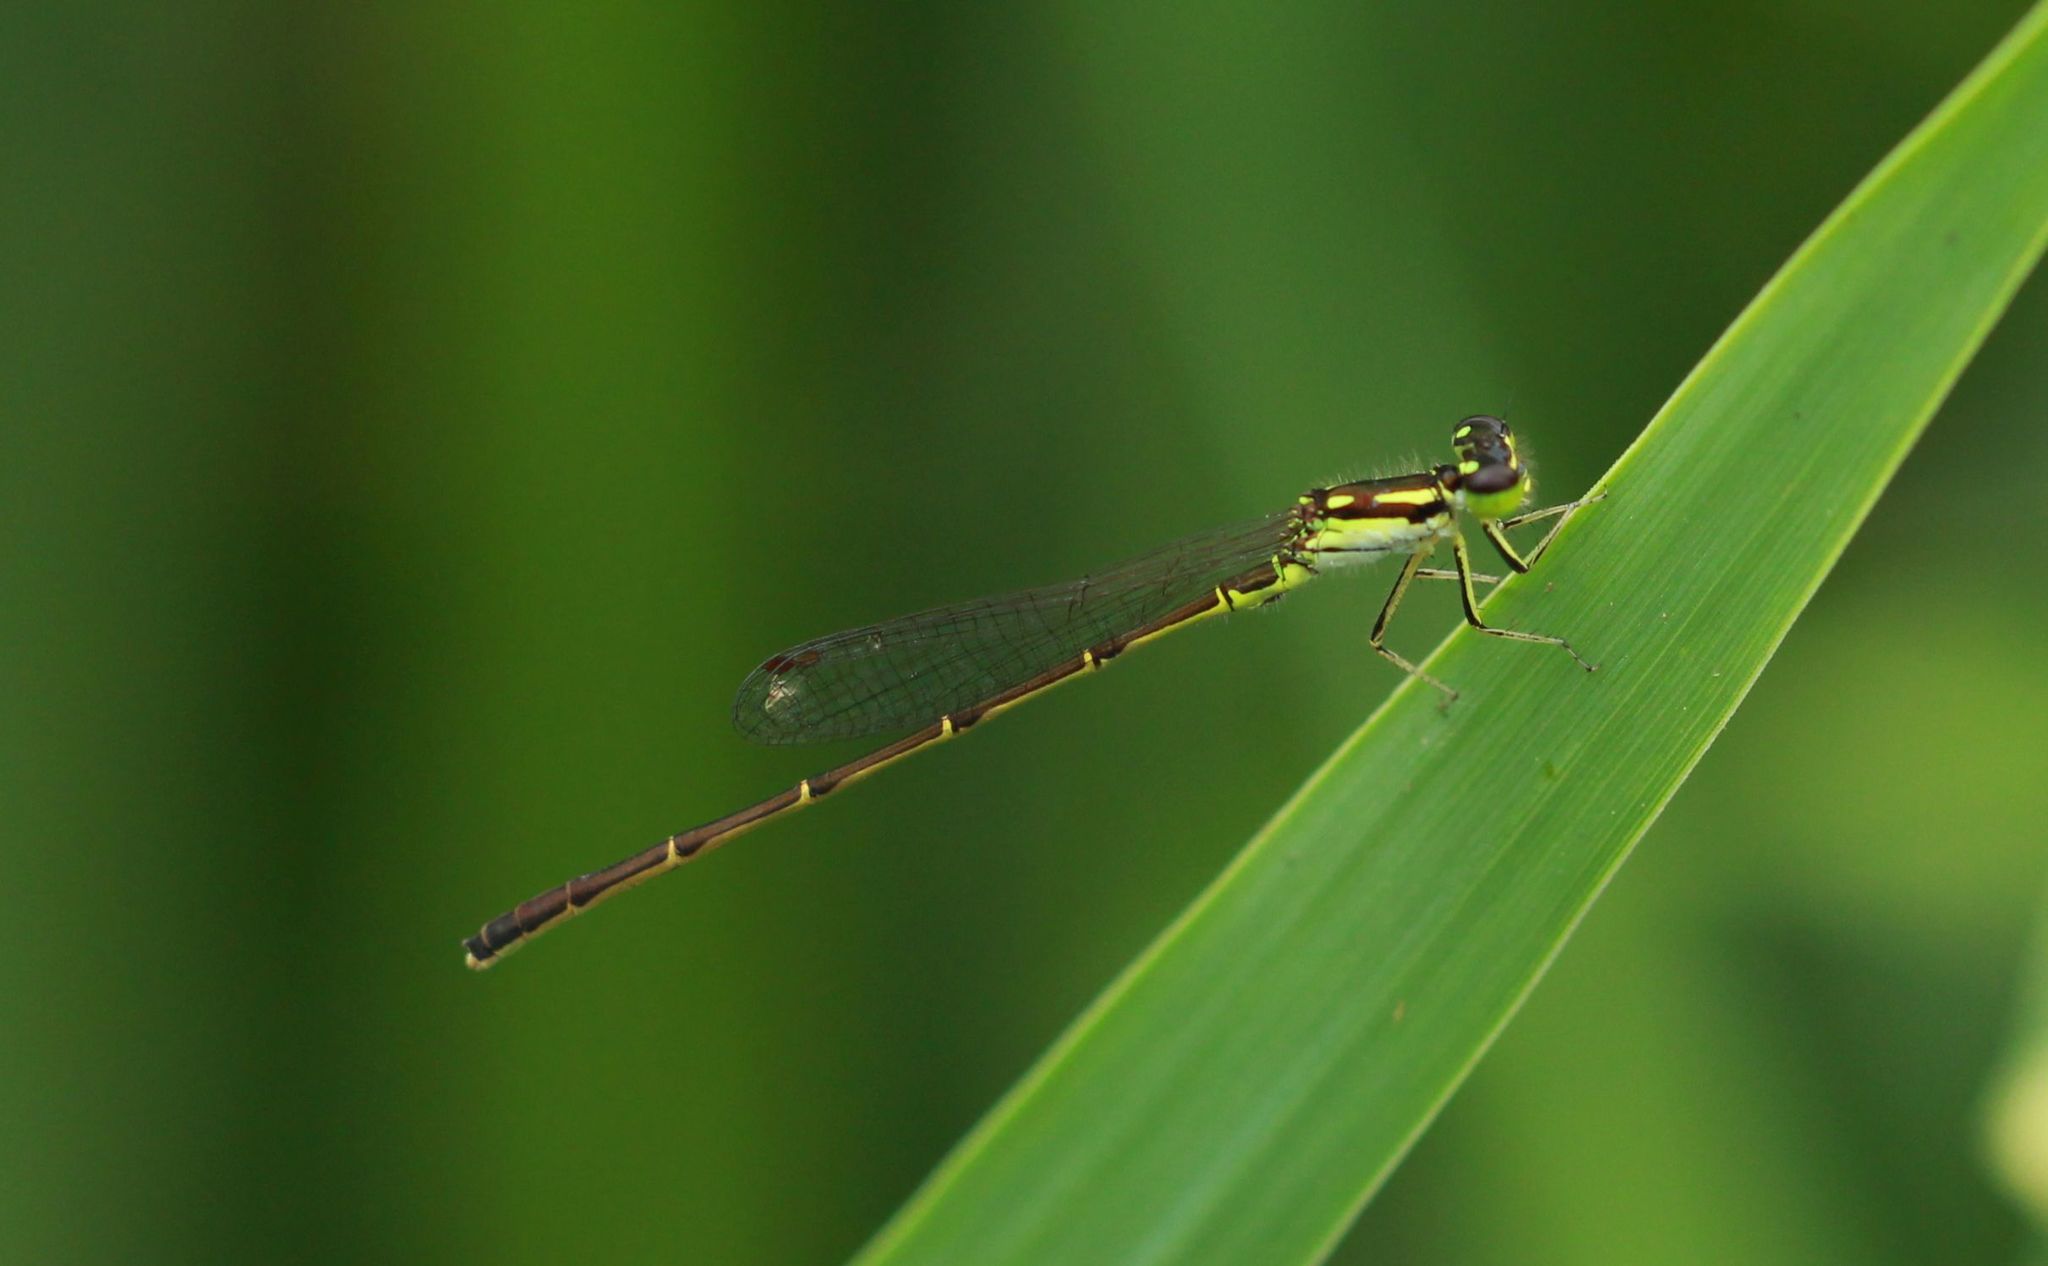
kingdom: Animalia
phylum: Arthropoda
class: Insecta
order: Odonata
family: Coenagrionidae
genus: Ischnura
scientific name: Ischnura posita
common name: Fragile forktail
